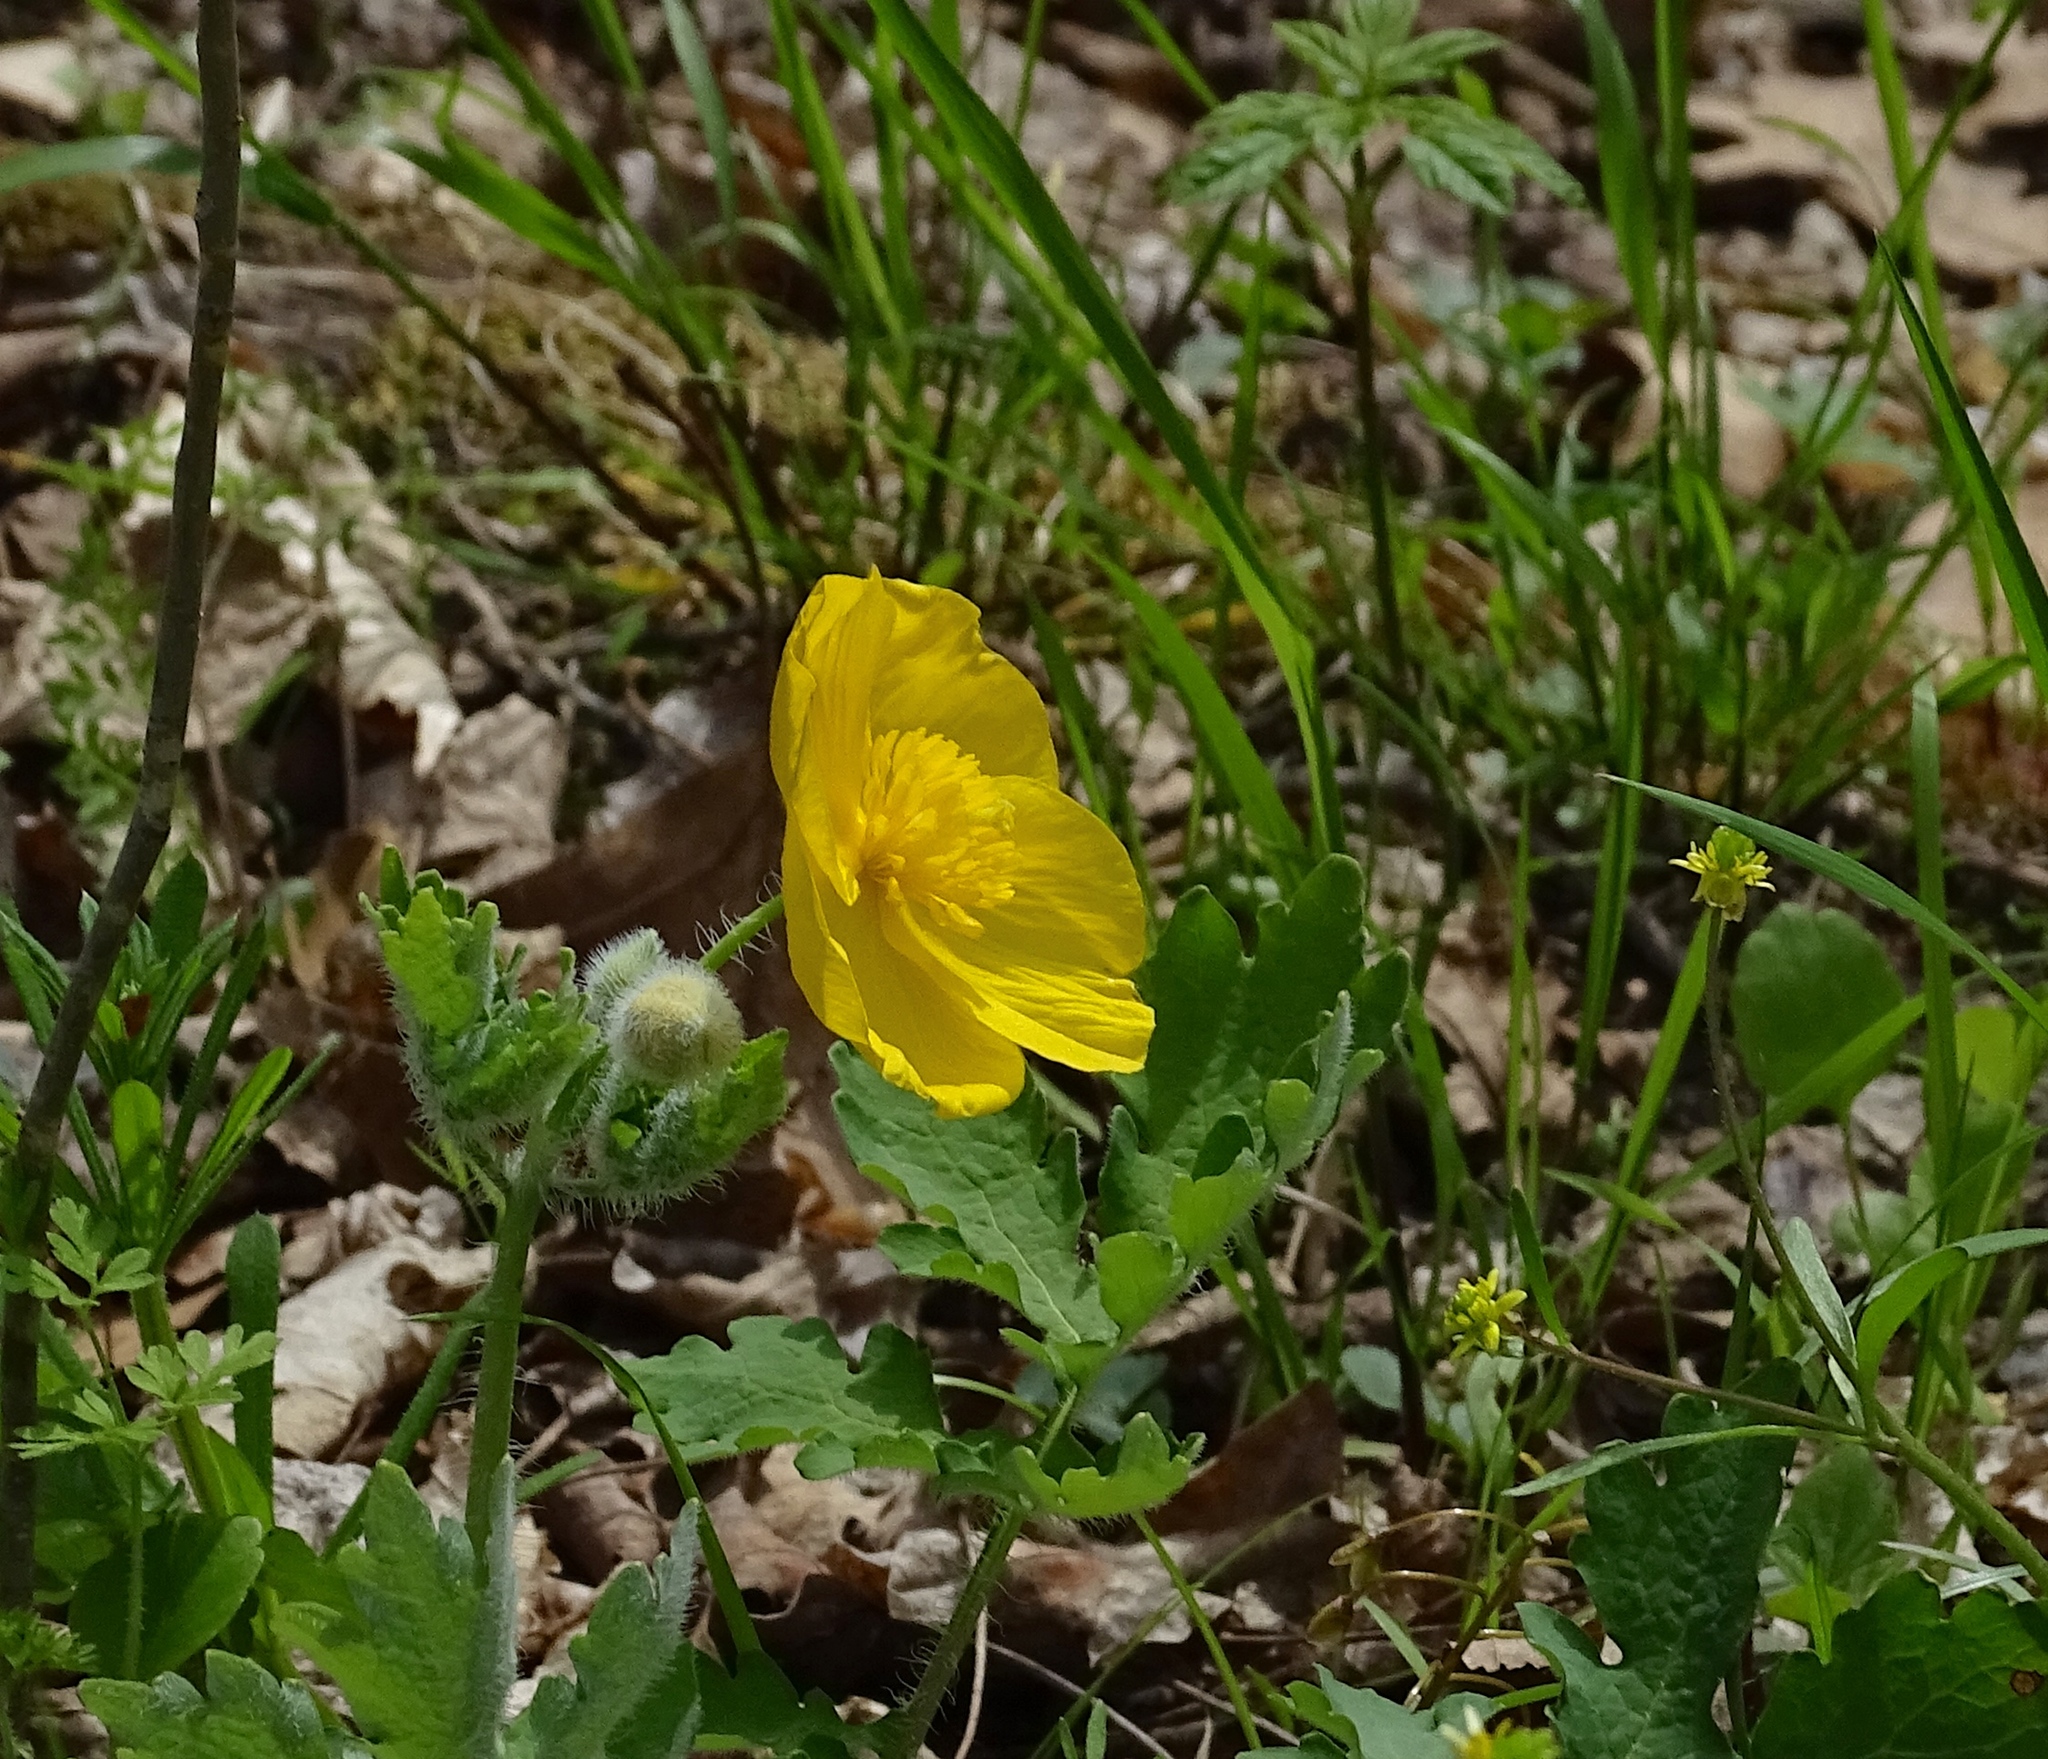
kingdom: Plantae
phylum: Tracheophyta
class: Magnoliopsida
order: Ranunculales
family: Papaveraceae
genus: Stylophorum
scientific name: Stylophorum diphyllum
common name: Celandine poppy
